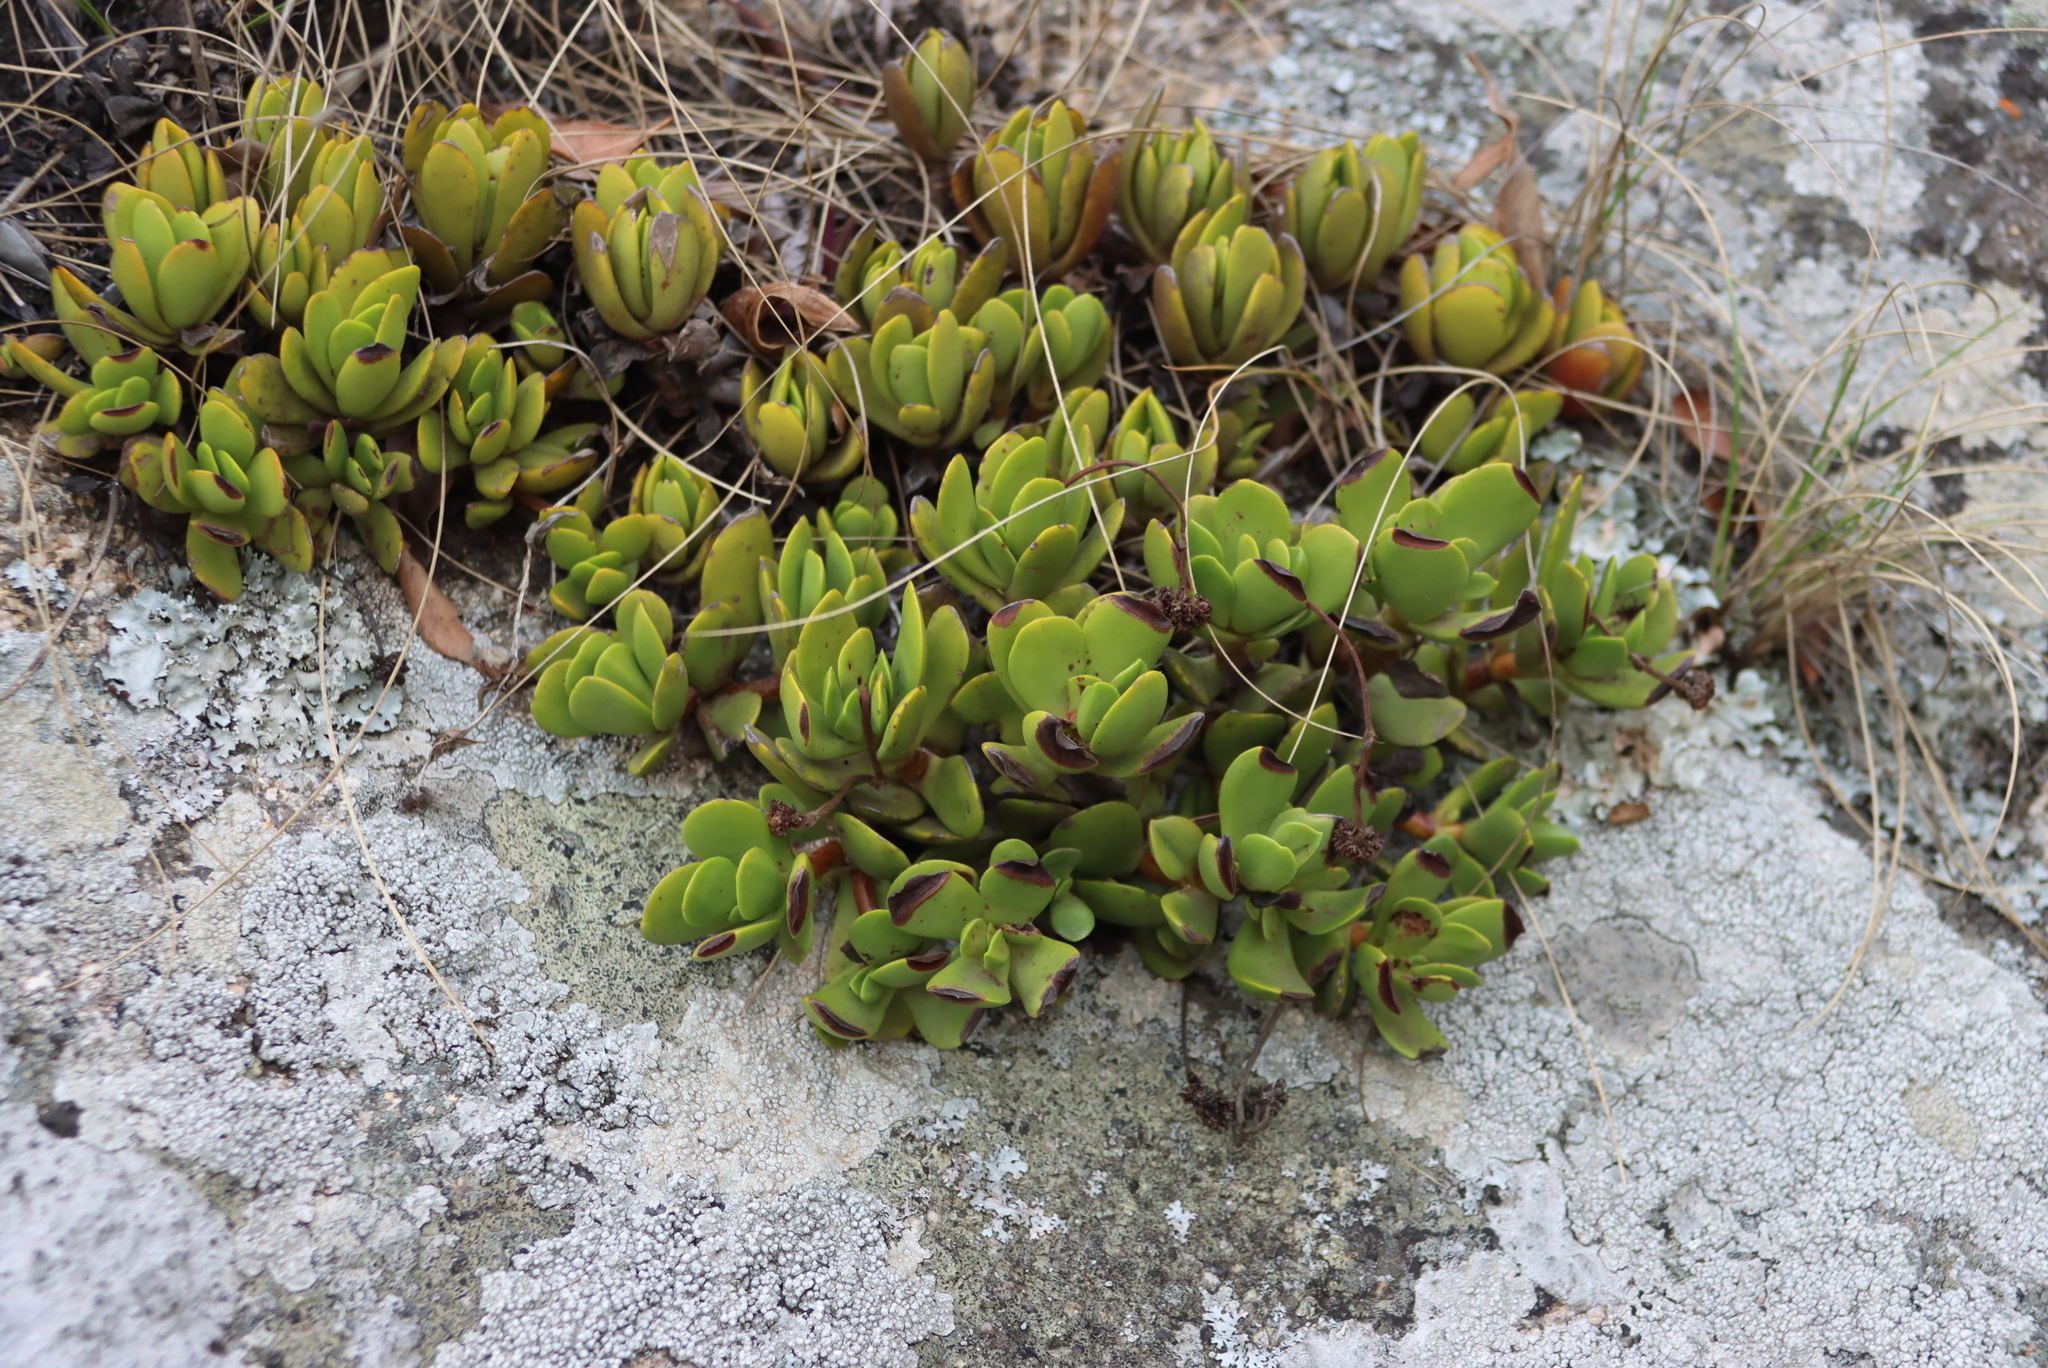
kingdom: Plantae
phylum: Tracheophyta
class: Magnoliopsida
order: Saxifragales
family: Crassulaceae
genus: Crassula
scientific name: Crassula globularioides
